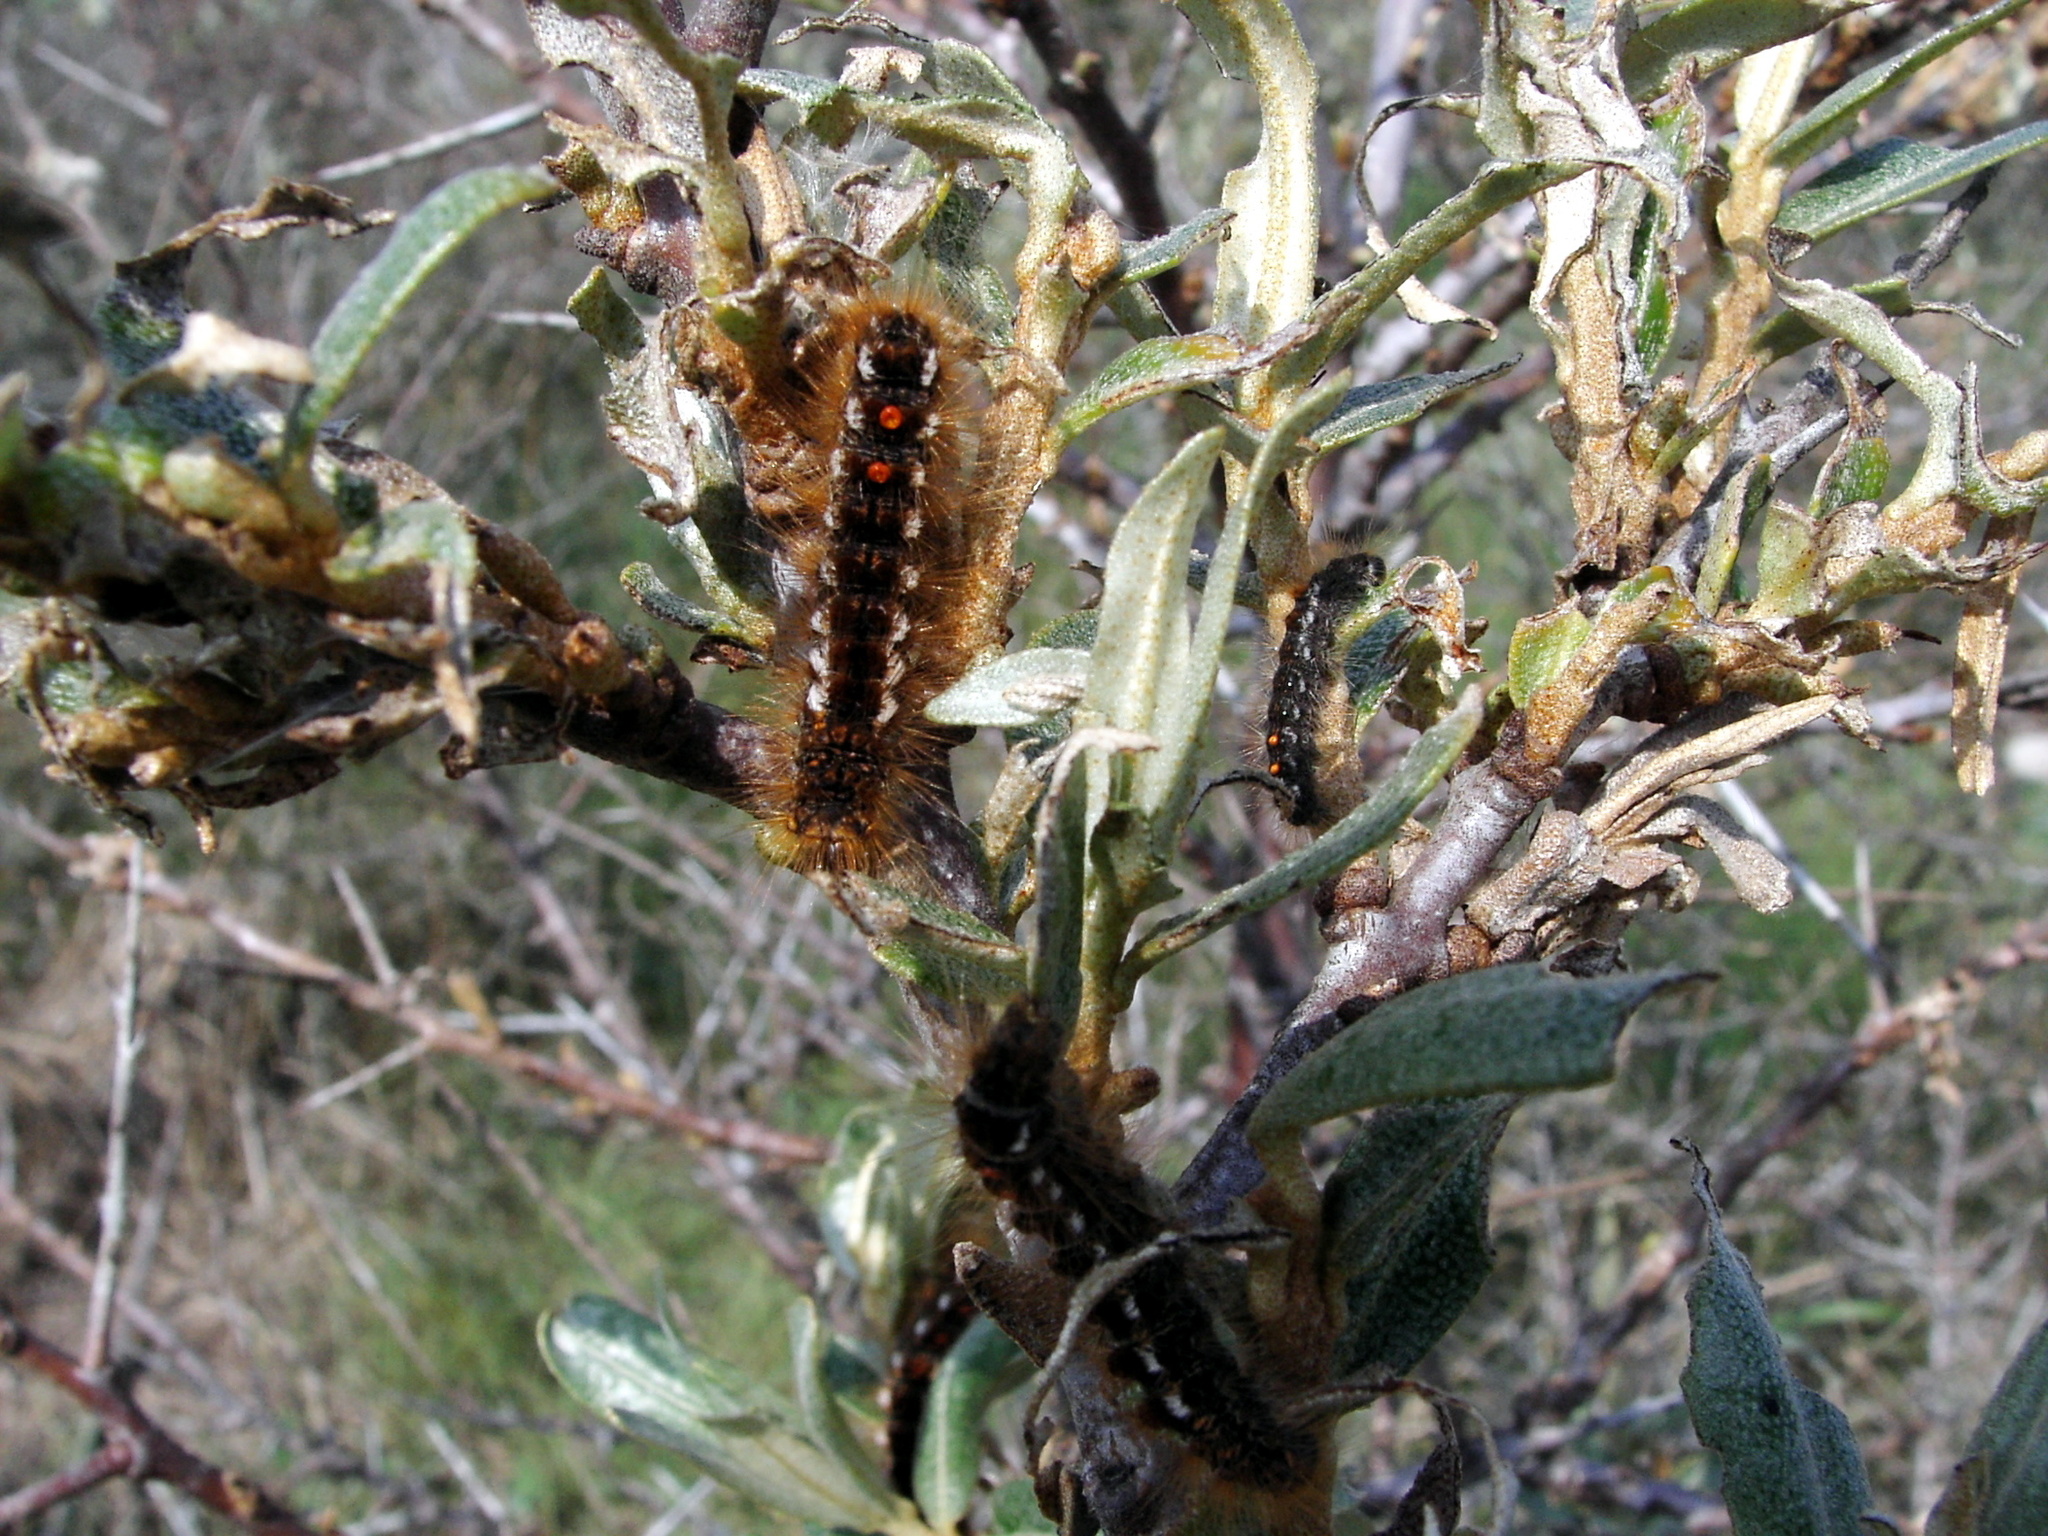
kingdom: Animalia
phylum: Arthropoda
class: Insecta
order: Lepidoptera
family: Erebidae
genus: Euproctis
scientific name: Euproctis chrysorrhoea
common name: Brown-tail
